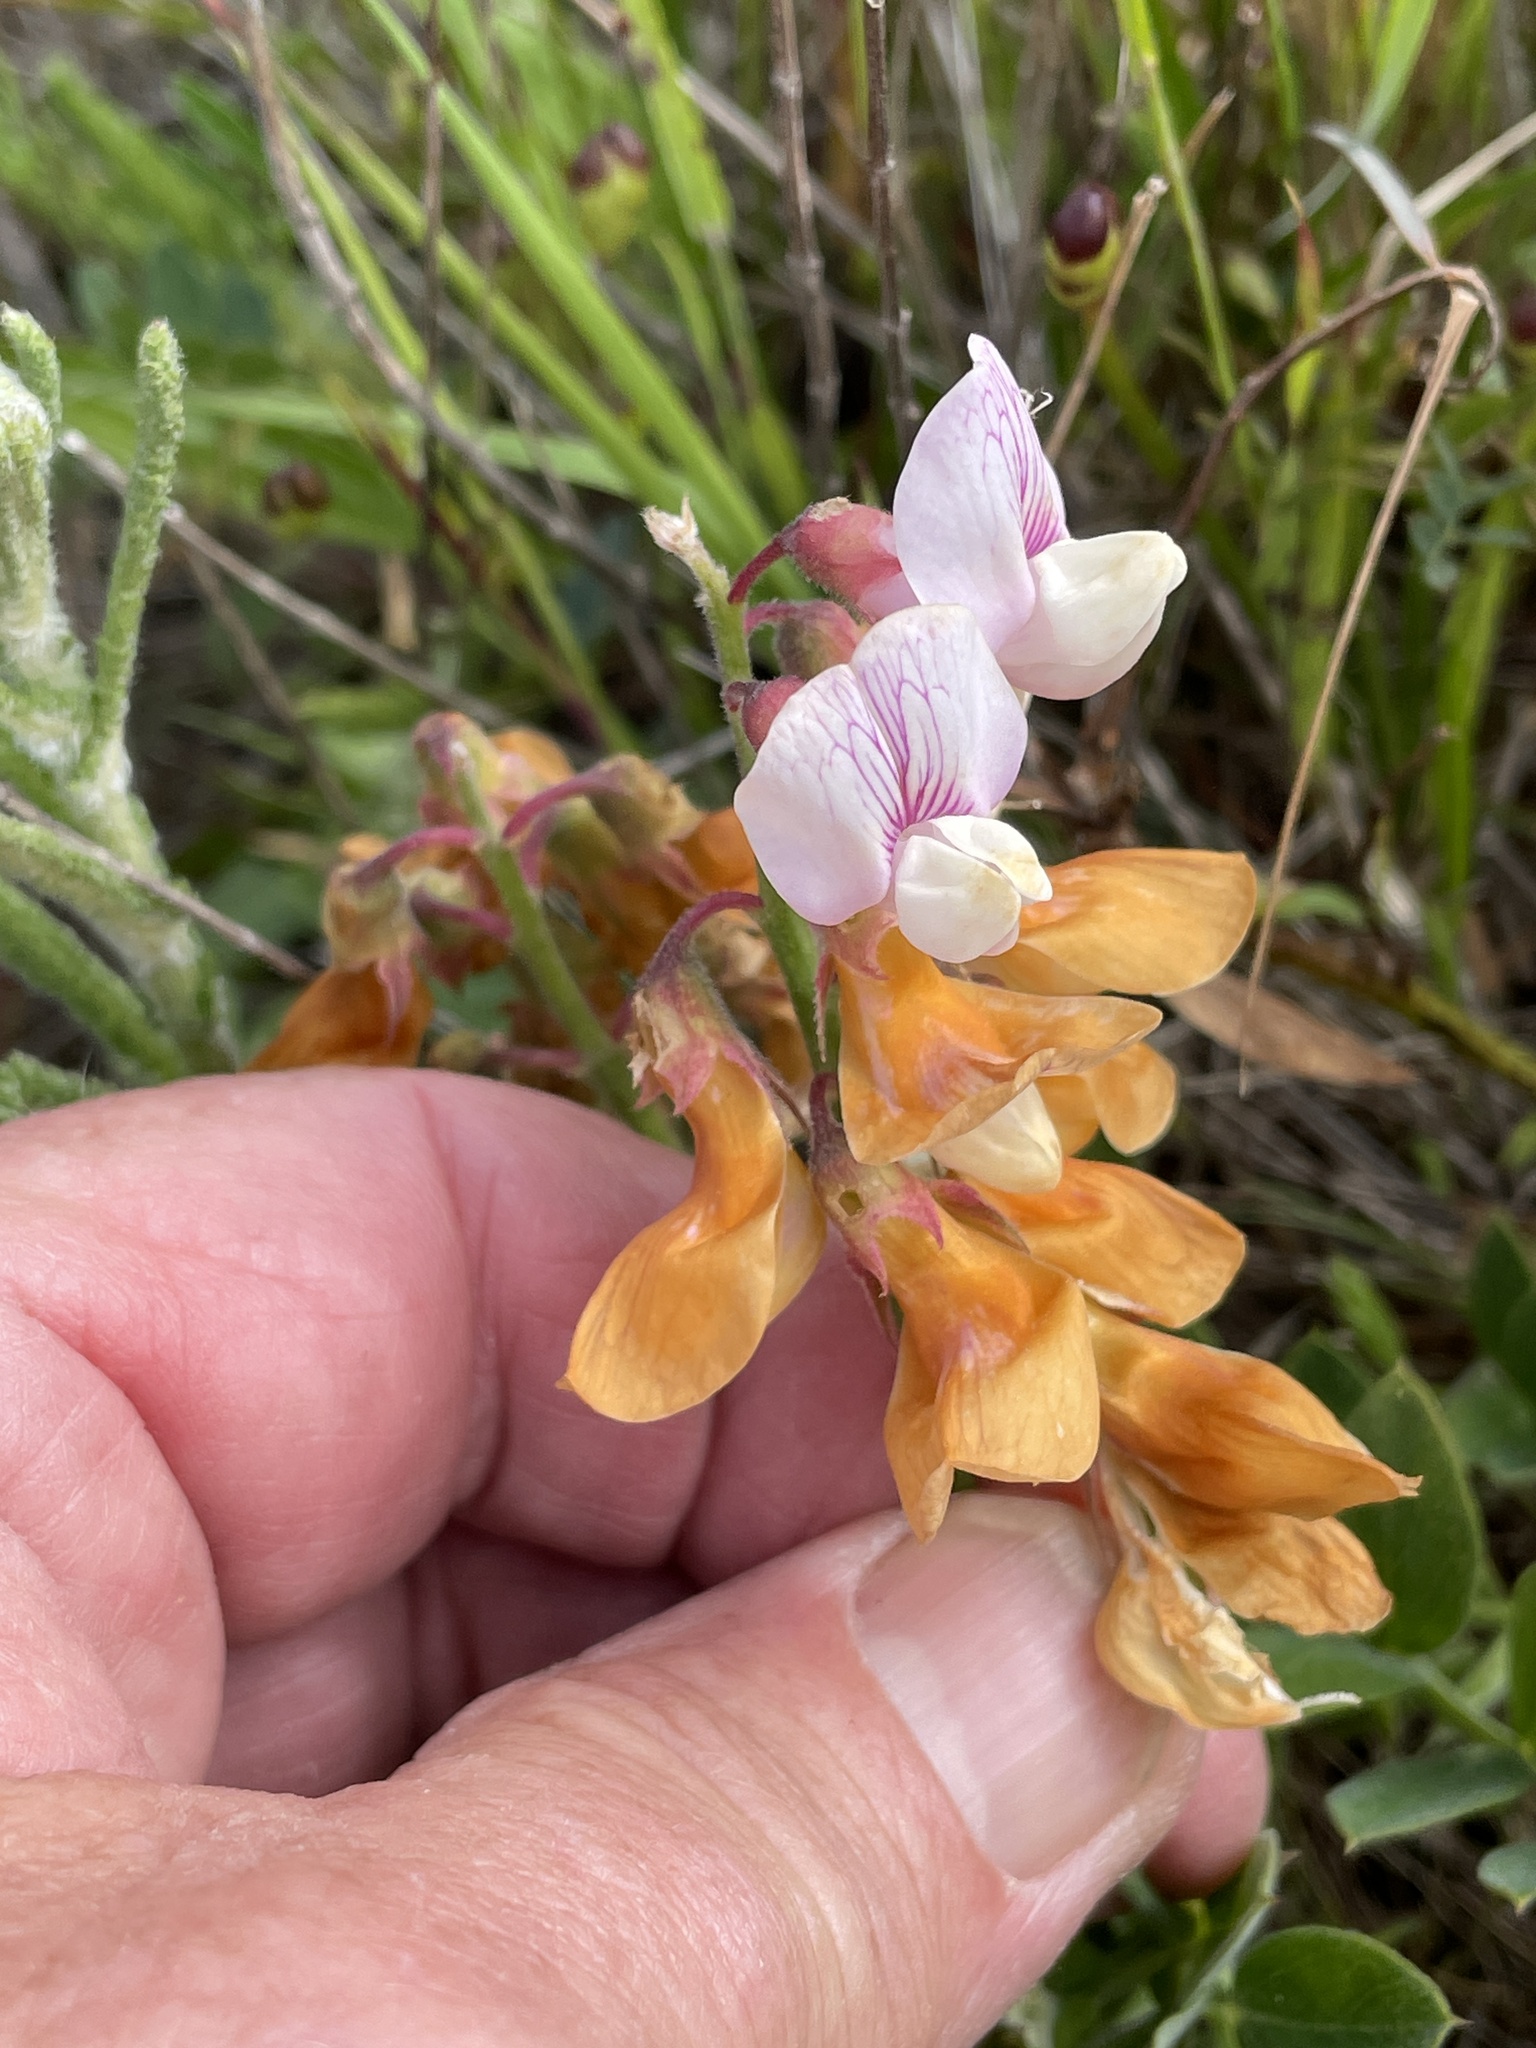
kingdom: Plantae
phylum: Tracheophyta
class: Magnoliopsida
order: Fabales
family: Fabaceae
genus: Lathyrus
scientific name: Lathyrus vestitus
